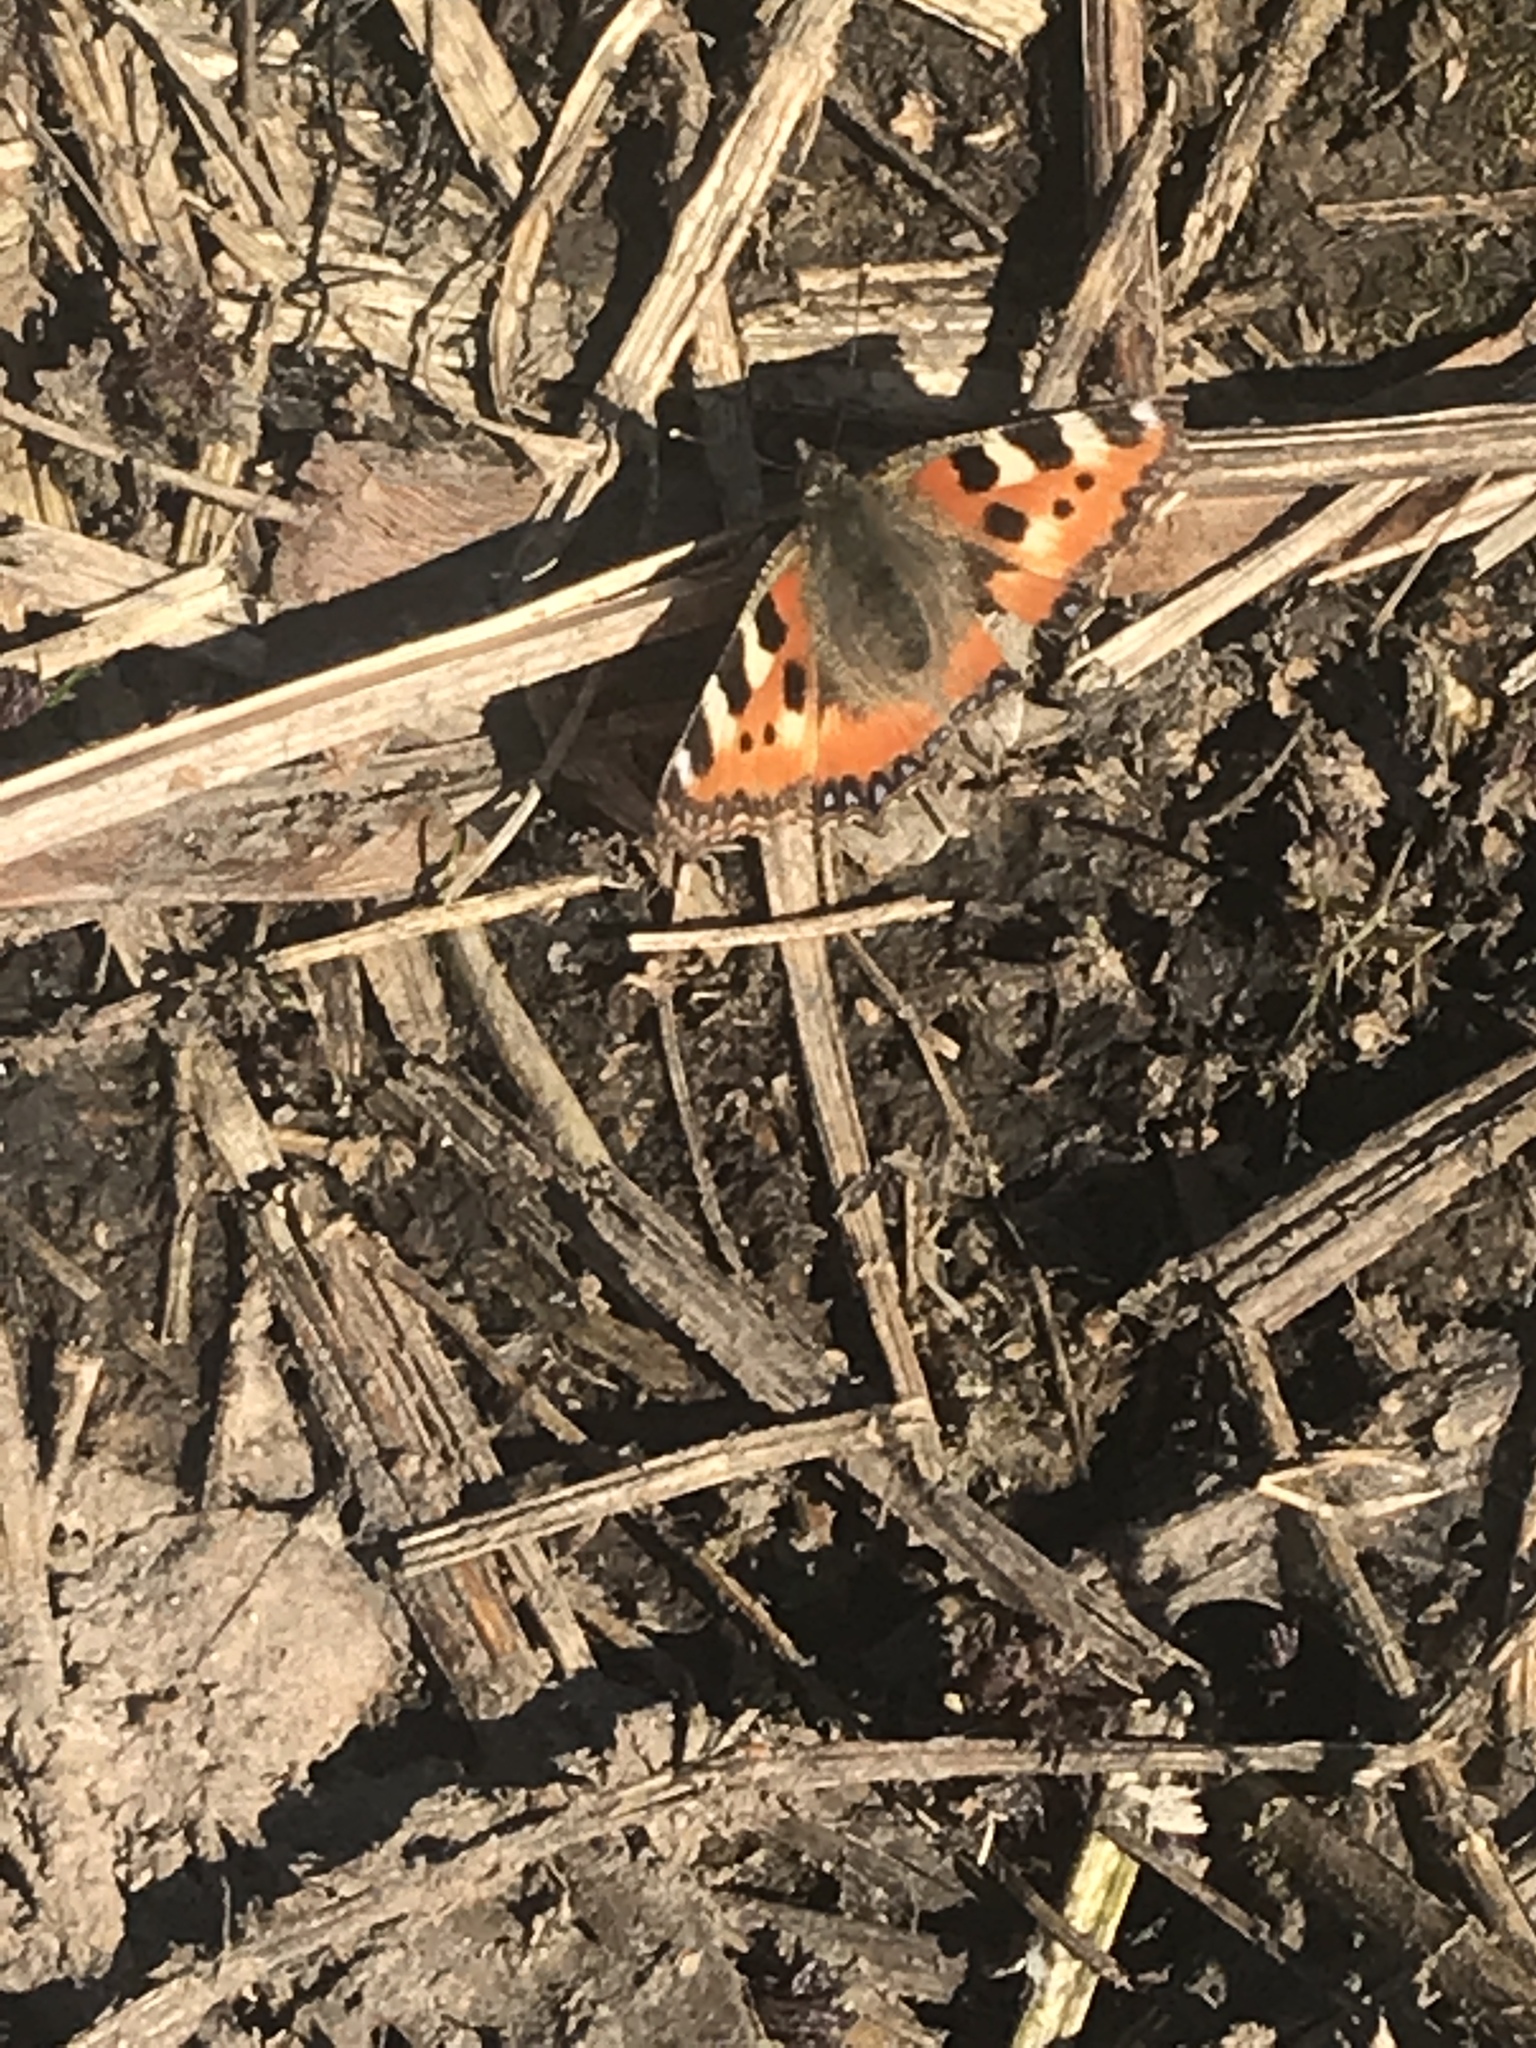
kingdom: Animalia
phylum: Arthropoda
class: Insecta
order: Lepidoptera
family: Nymphalidae
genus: Aglais
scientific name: Aglais urticae
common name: Small tortoiseshell
